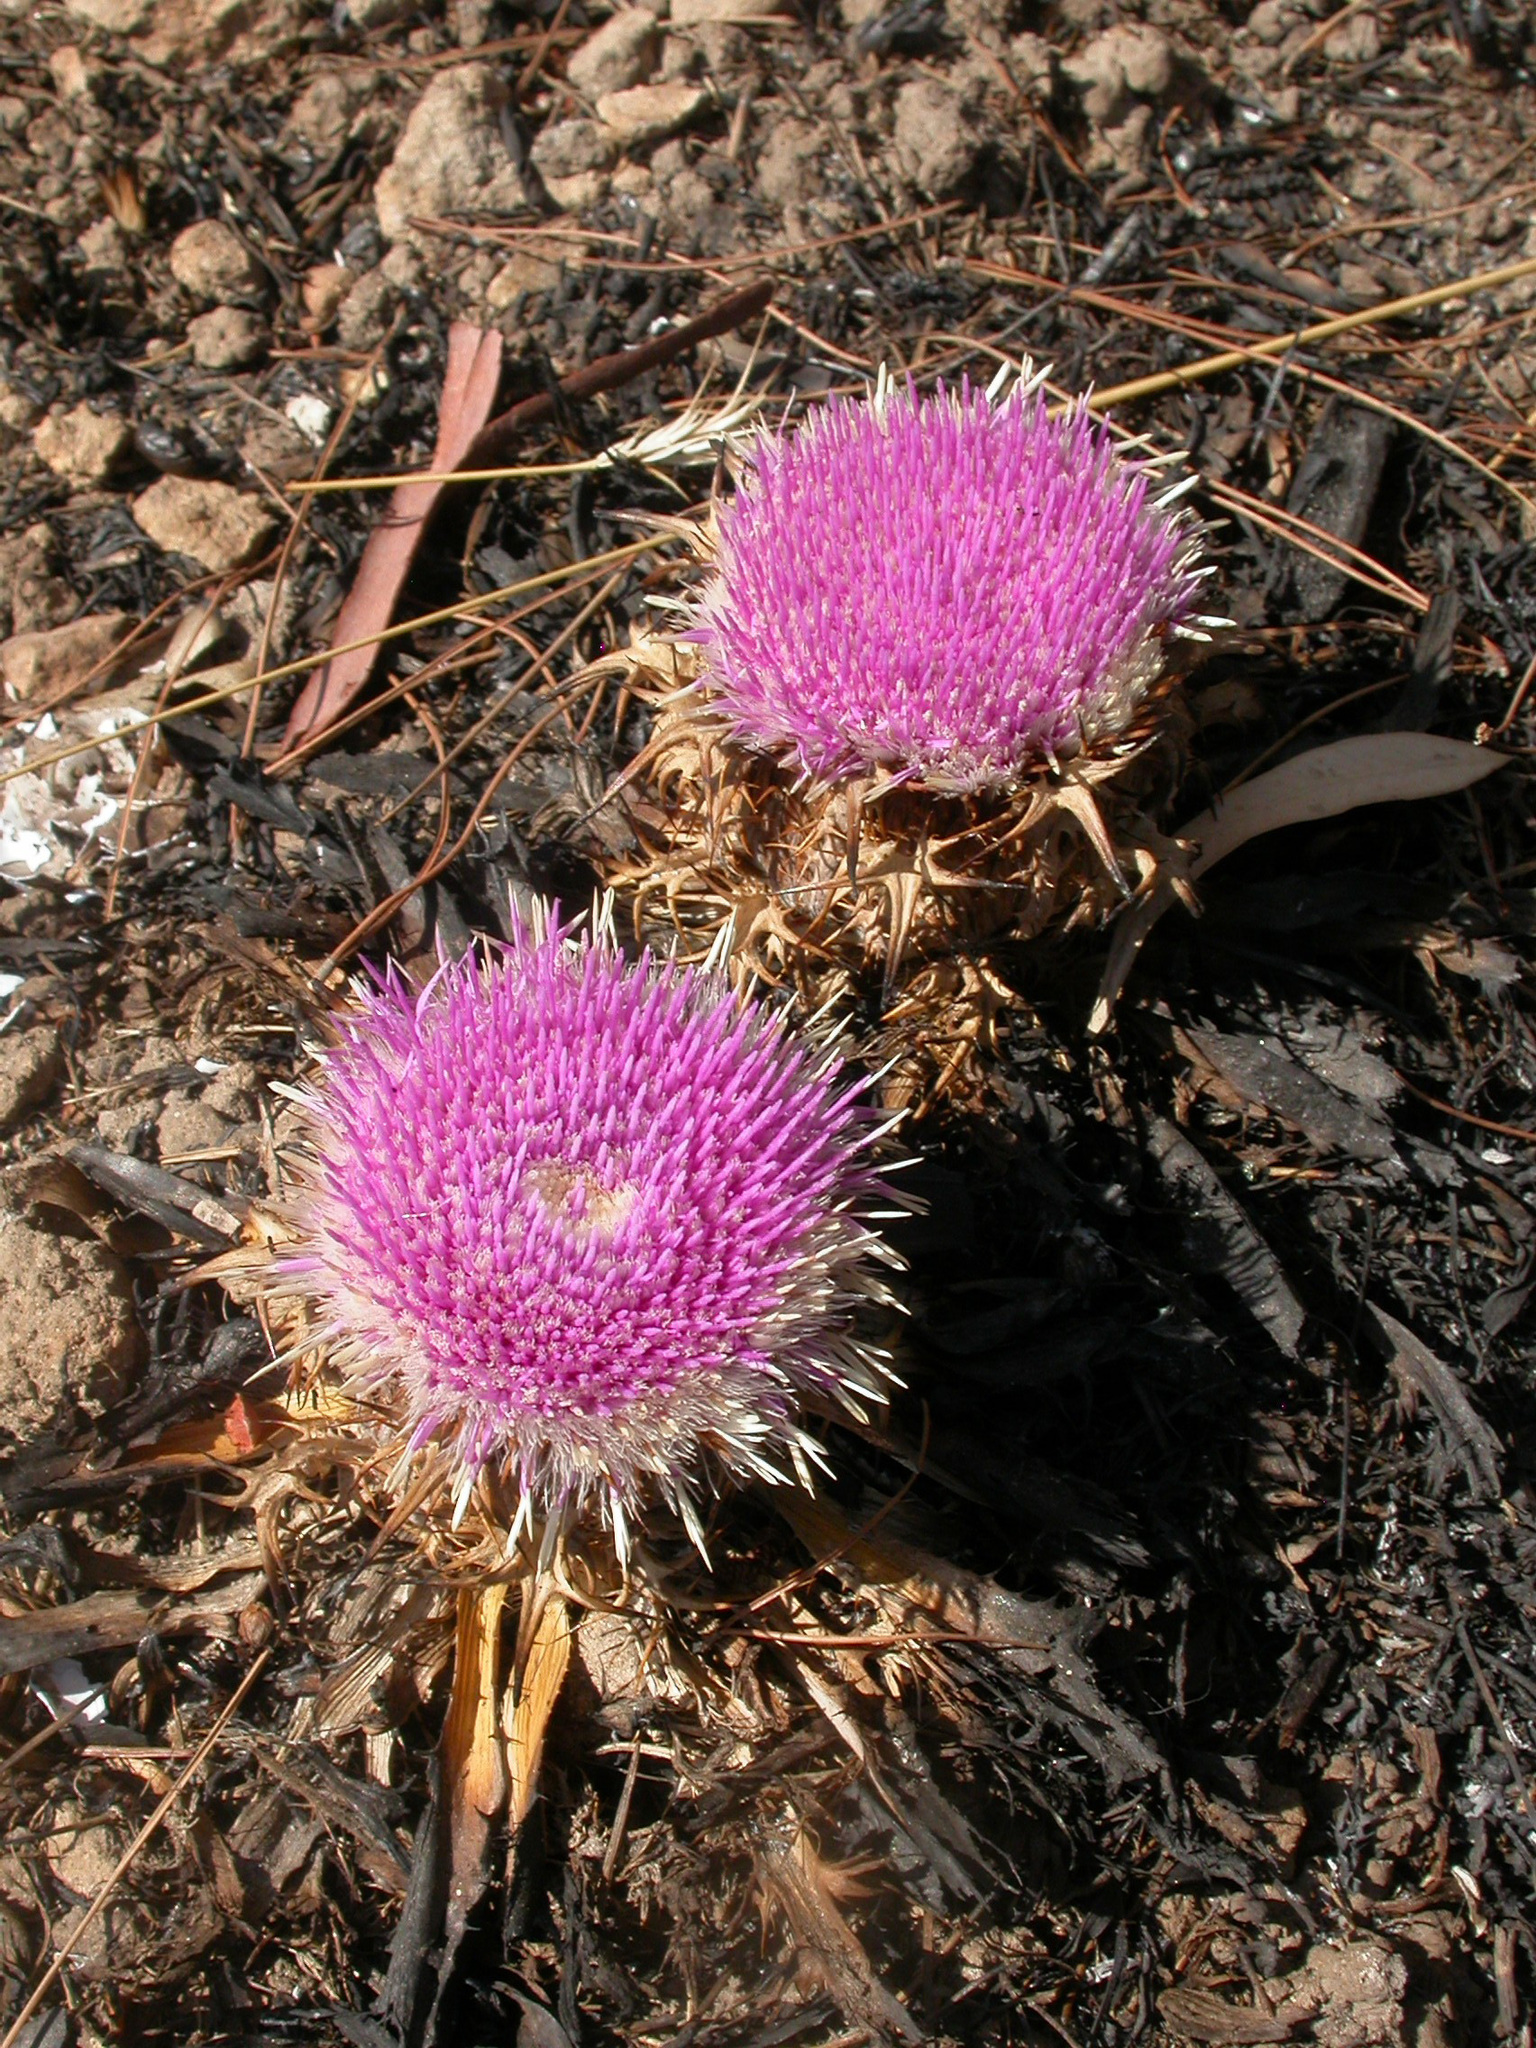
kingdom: Plantae
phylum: Tracheophyta
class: Magnoliopsida
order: Asterales
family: Asteraceae
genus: Chamaeleon
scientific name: Chamaeleon gummifer
